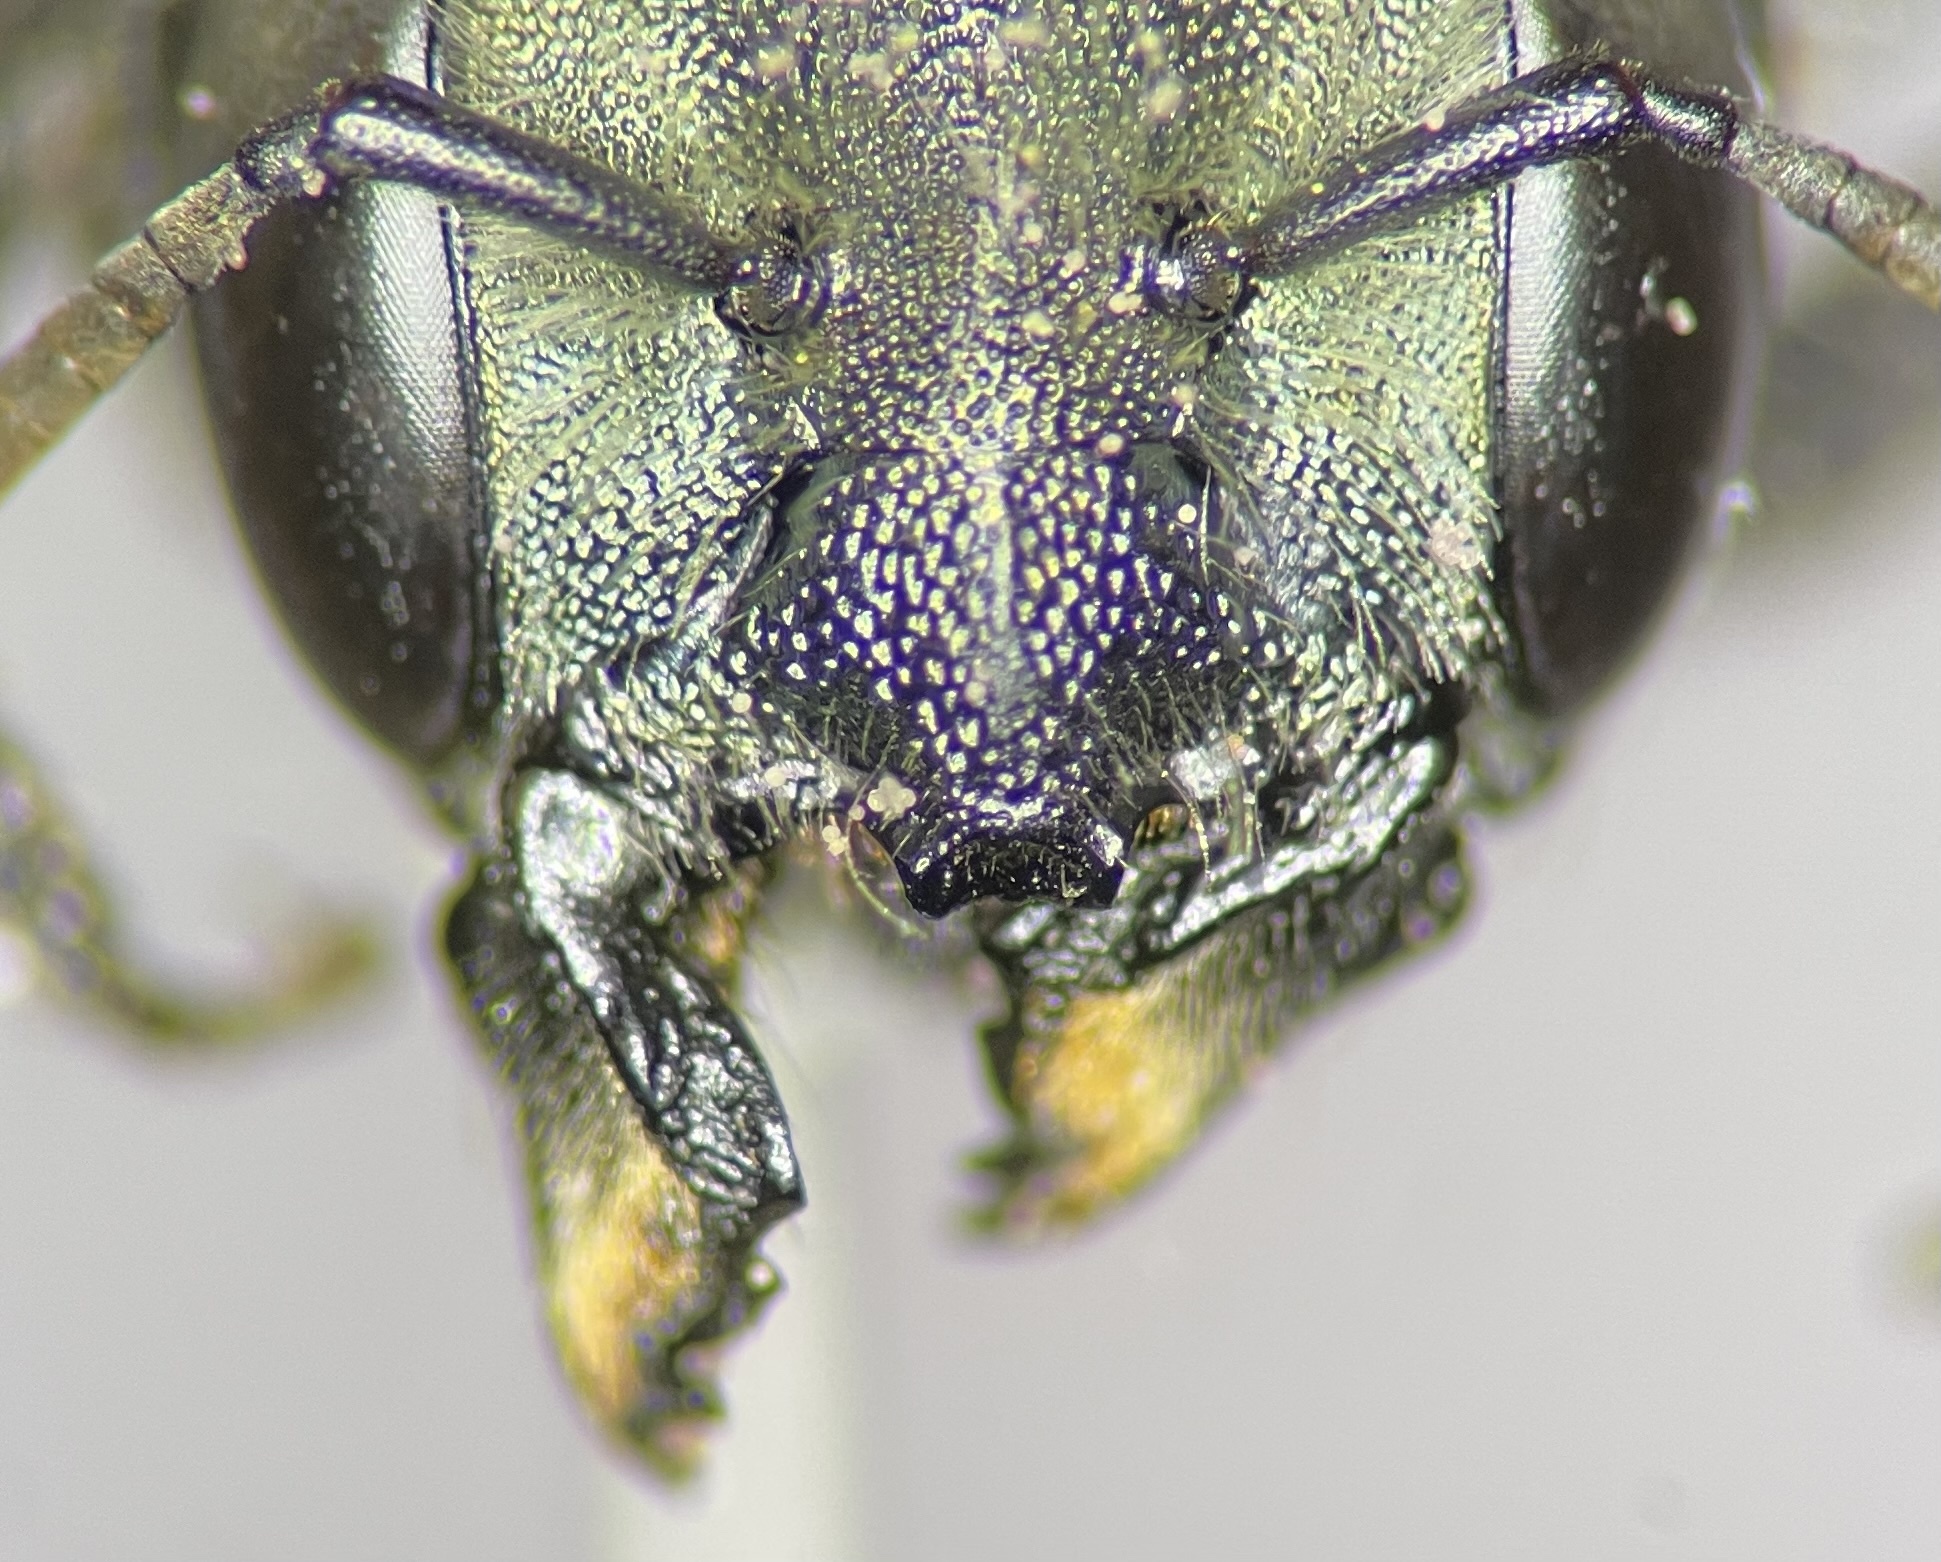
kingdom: Animalia
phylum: Arthropoda
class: Insecta
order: Hymenoptera
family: Megachilidae
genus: Osmia
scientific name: Osmia chalybea
